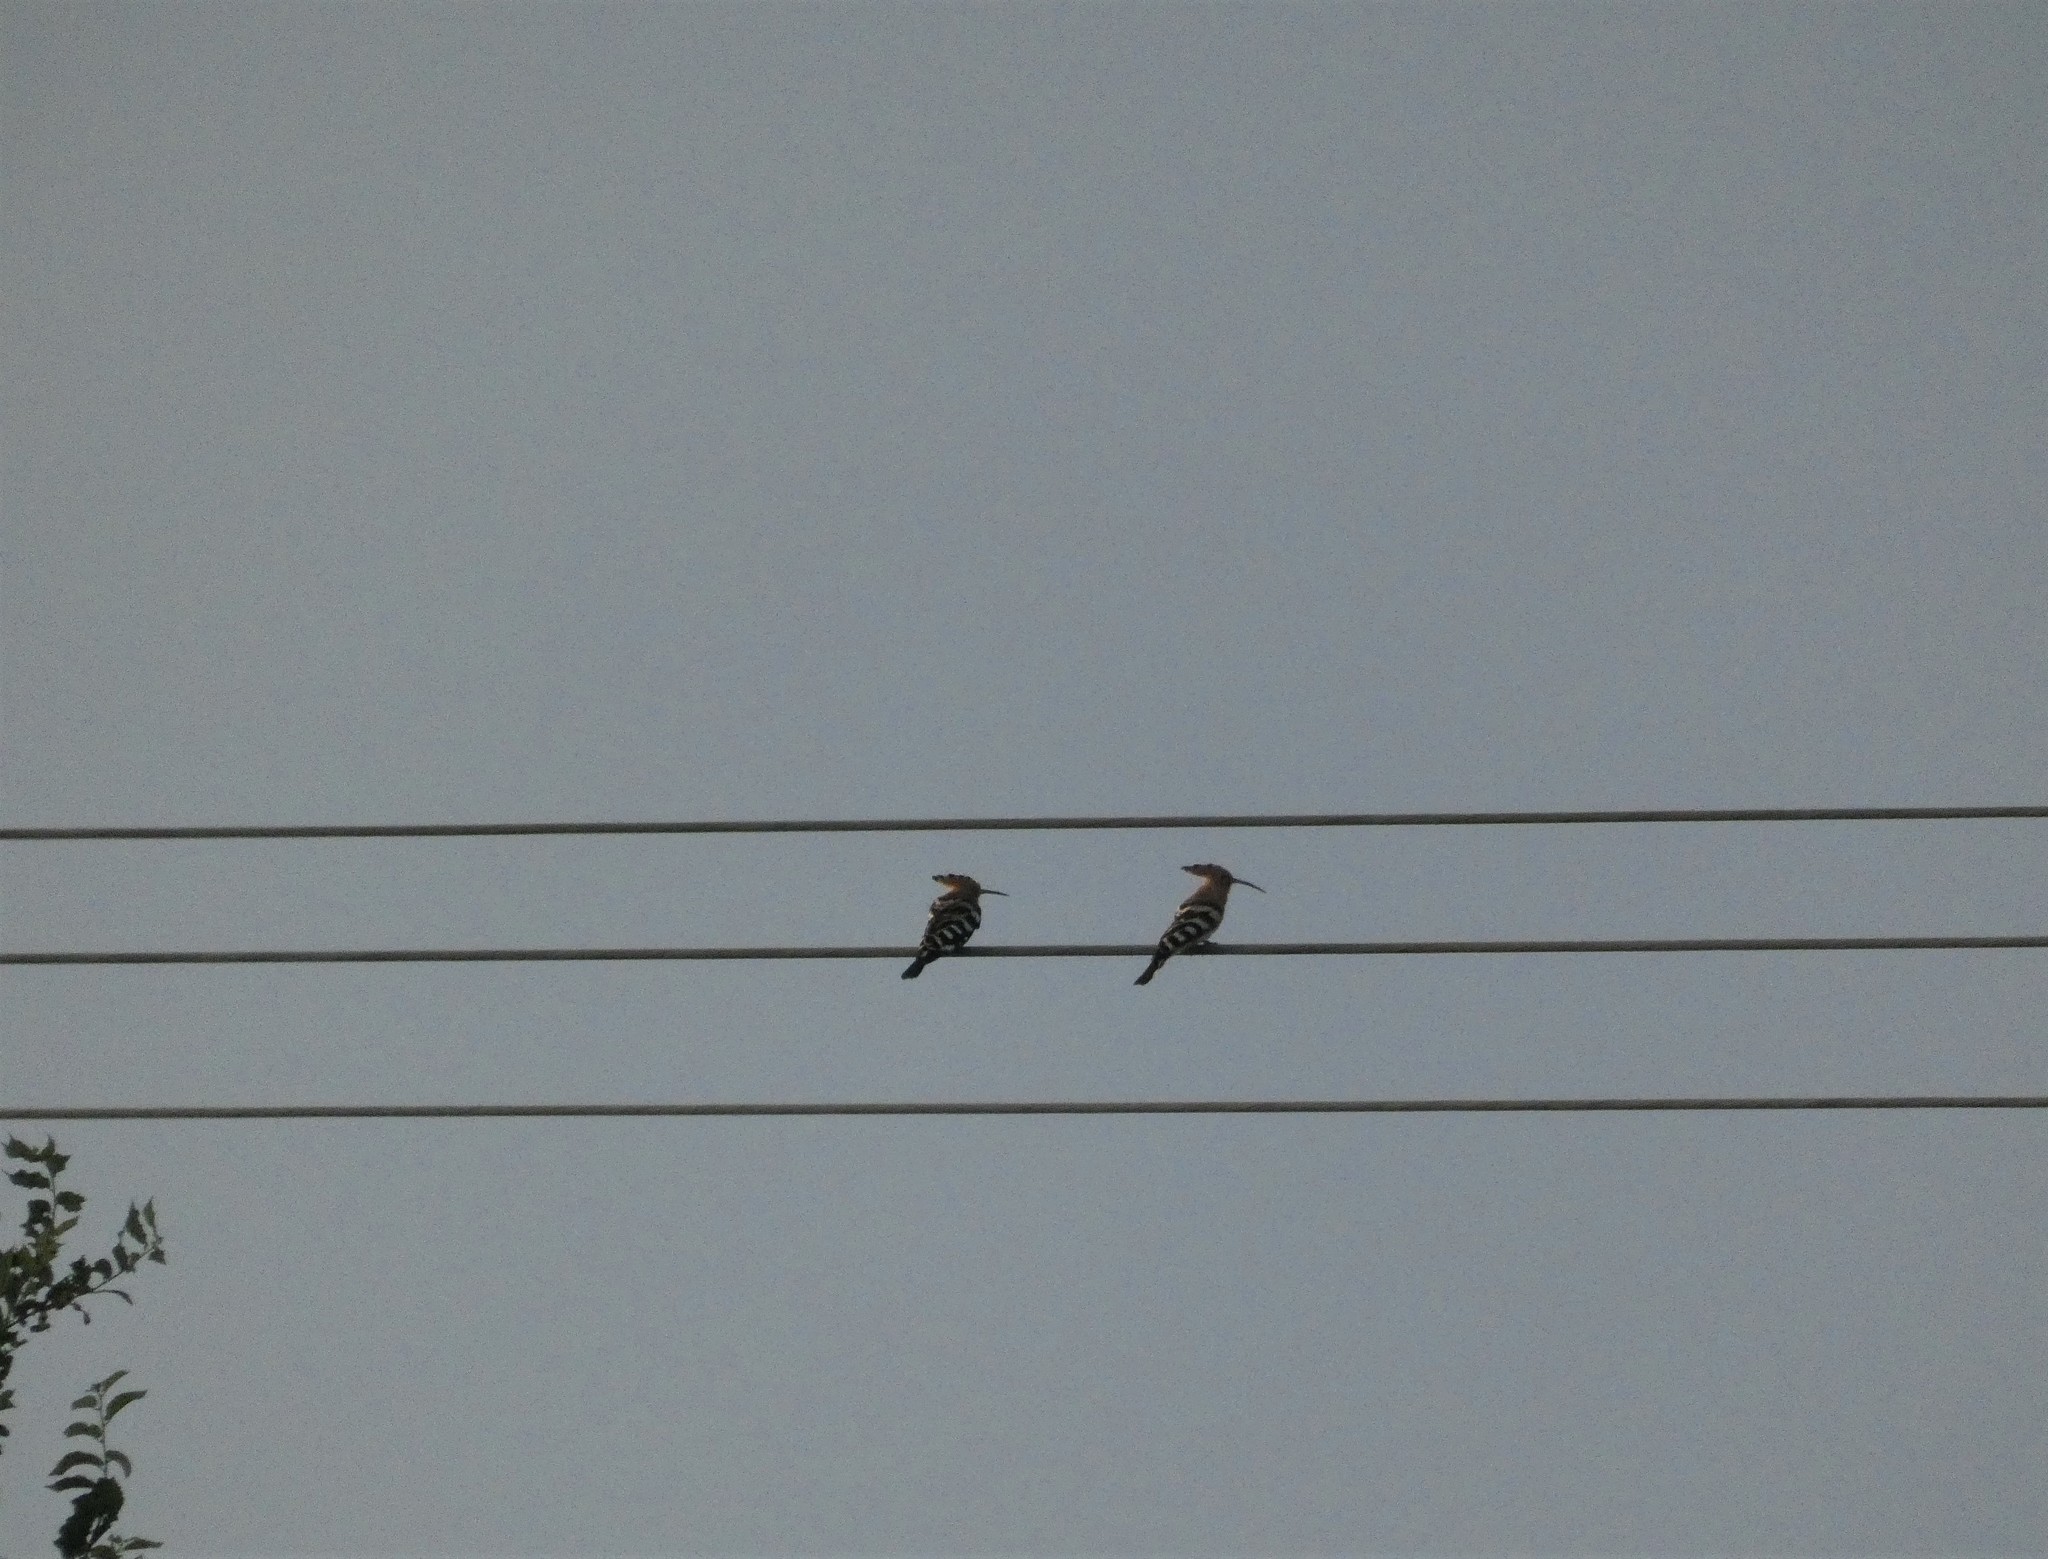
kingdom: Animalia
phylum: Chordata
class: Aves
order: Bucerotiformes
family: Upupidae
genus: Upupa
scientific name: Upupa epops
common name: Eurasian hoopoe
